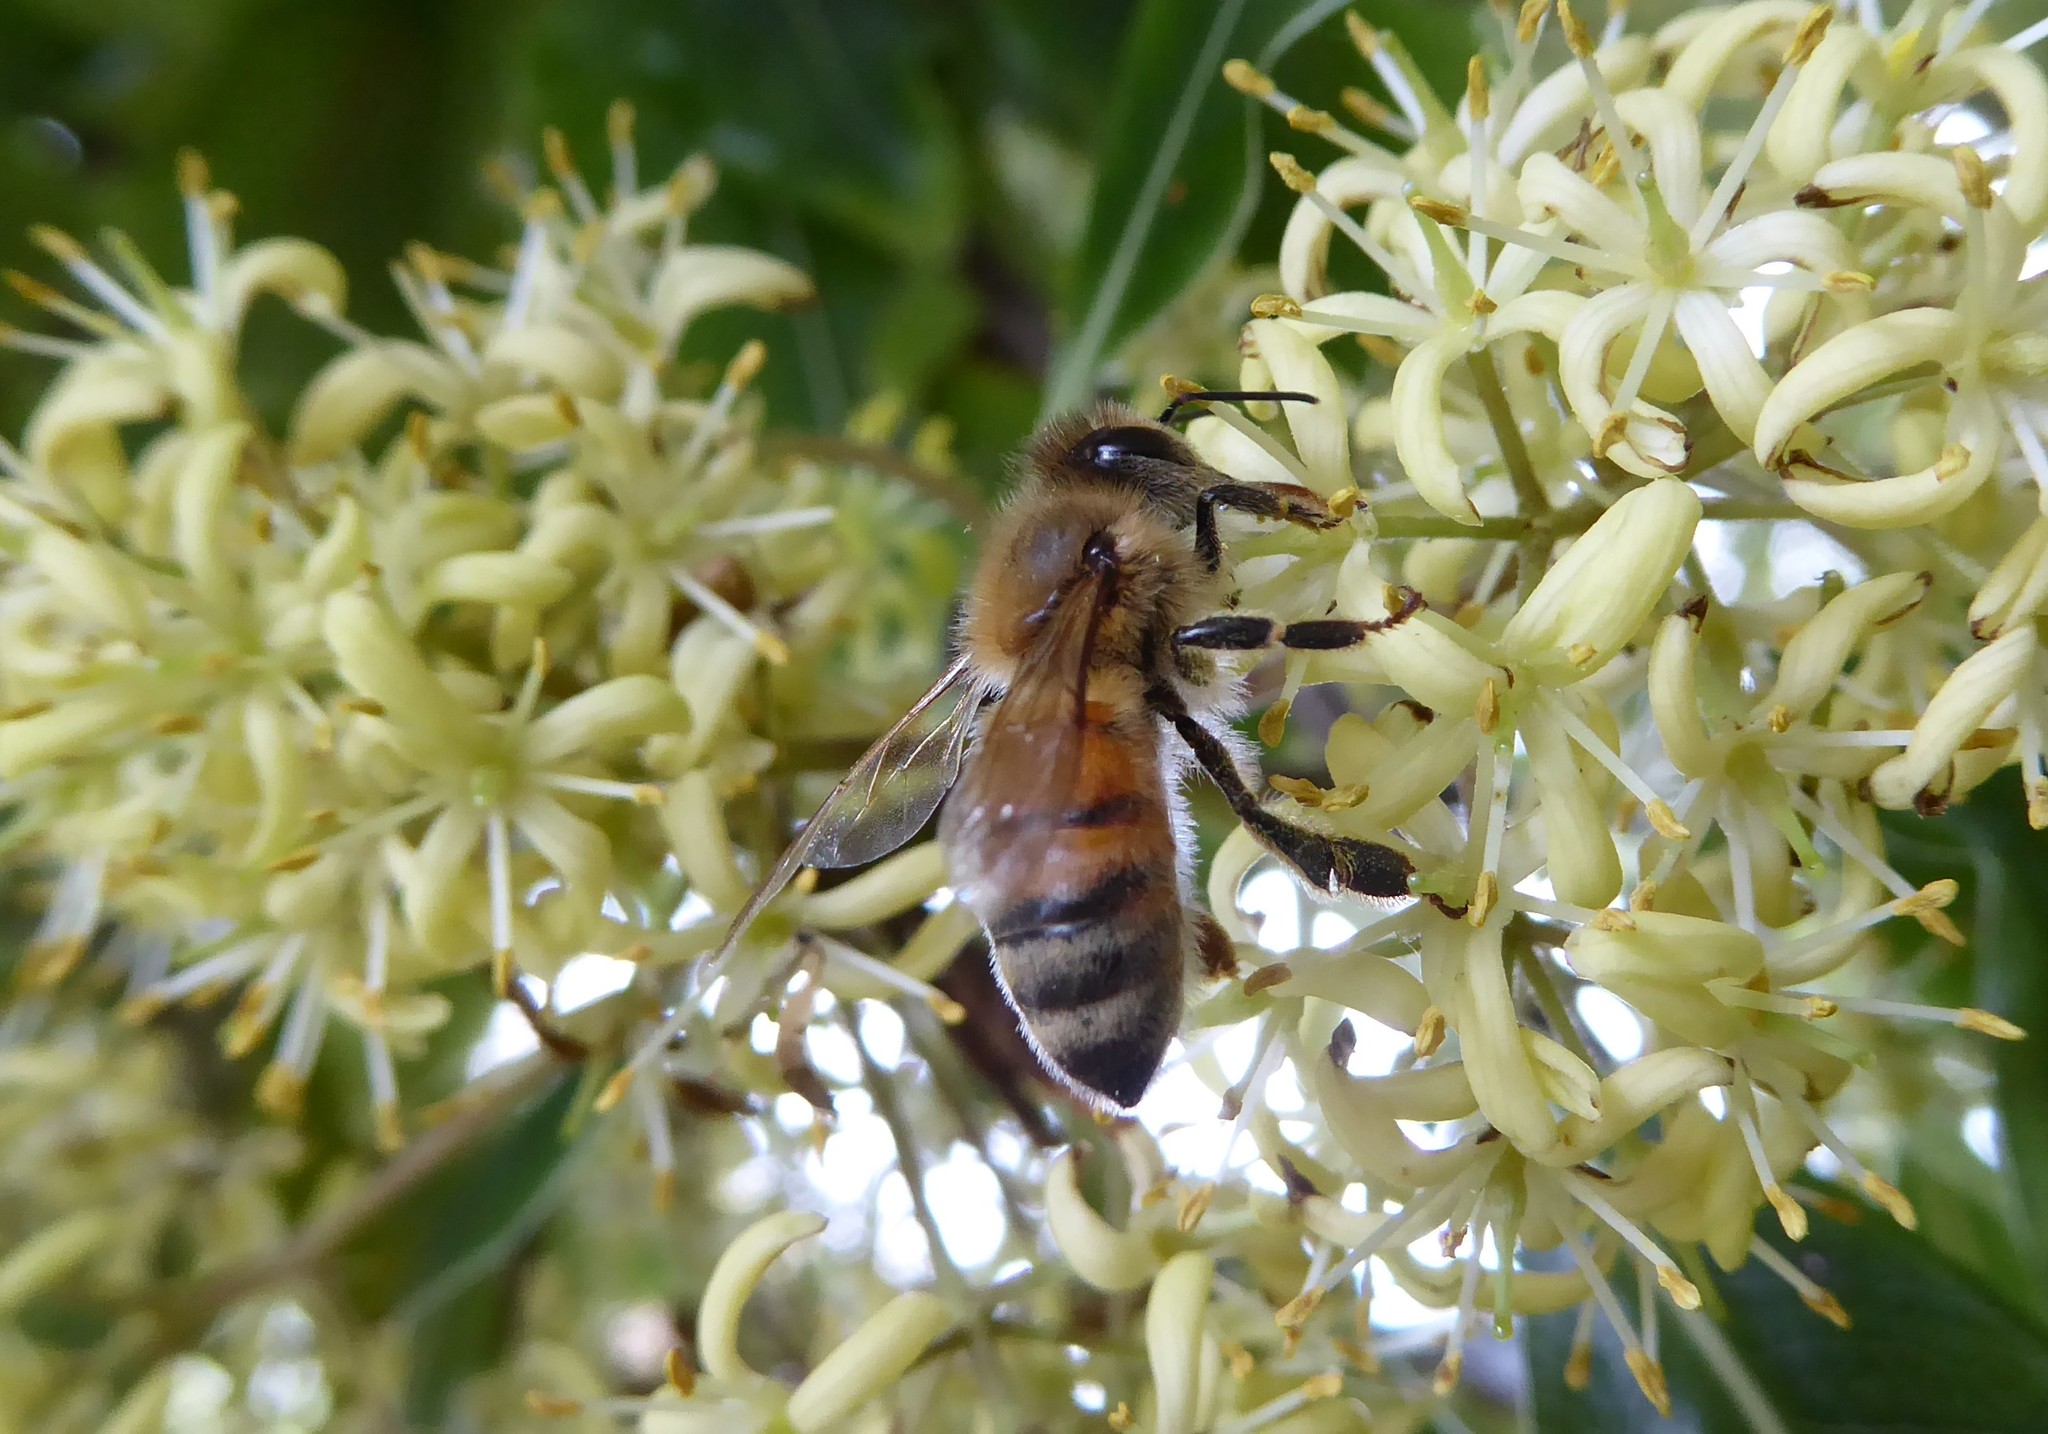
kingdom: Animalia
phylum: Arthropoda
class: Insecta
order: Hymenoptera
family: Apidae
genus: Apis
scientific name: Apis mellifera
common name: Honey bee
